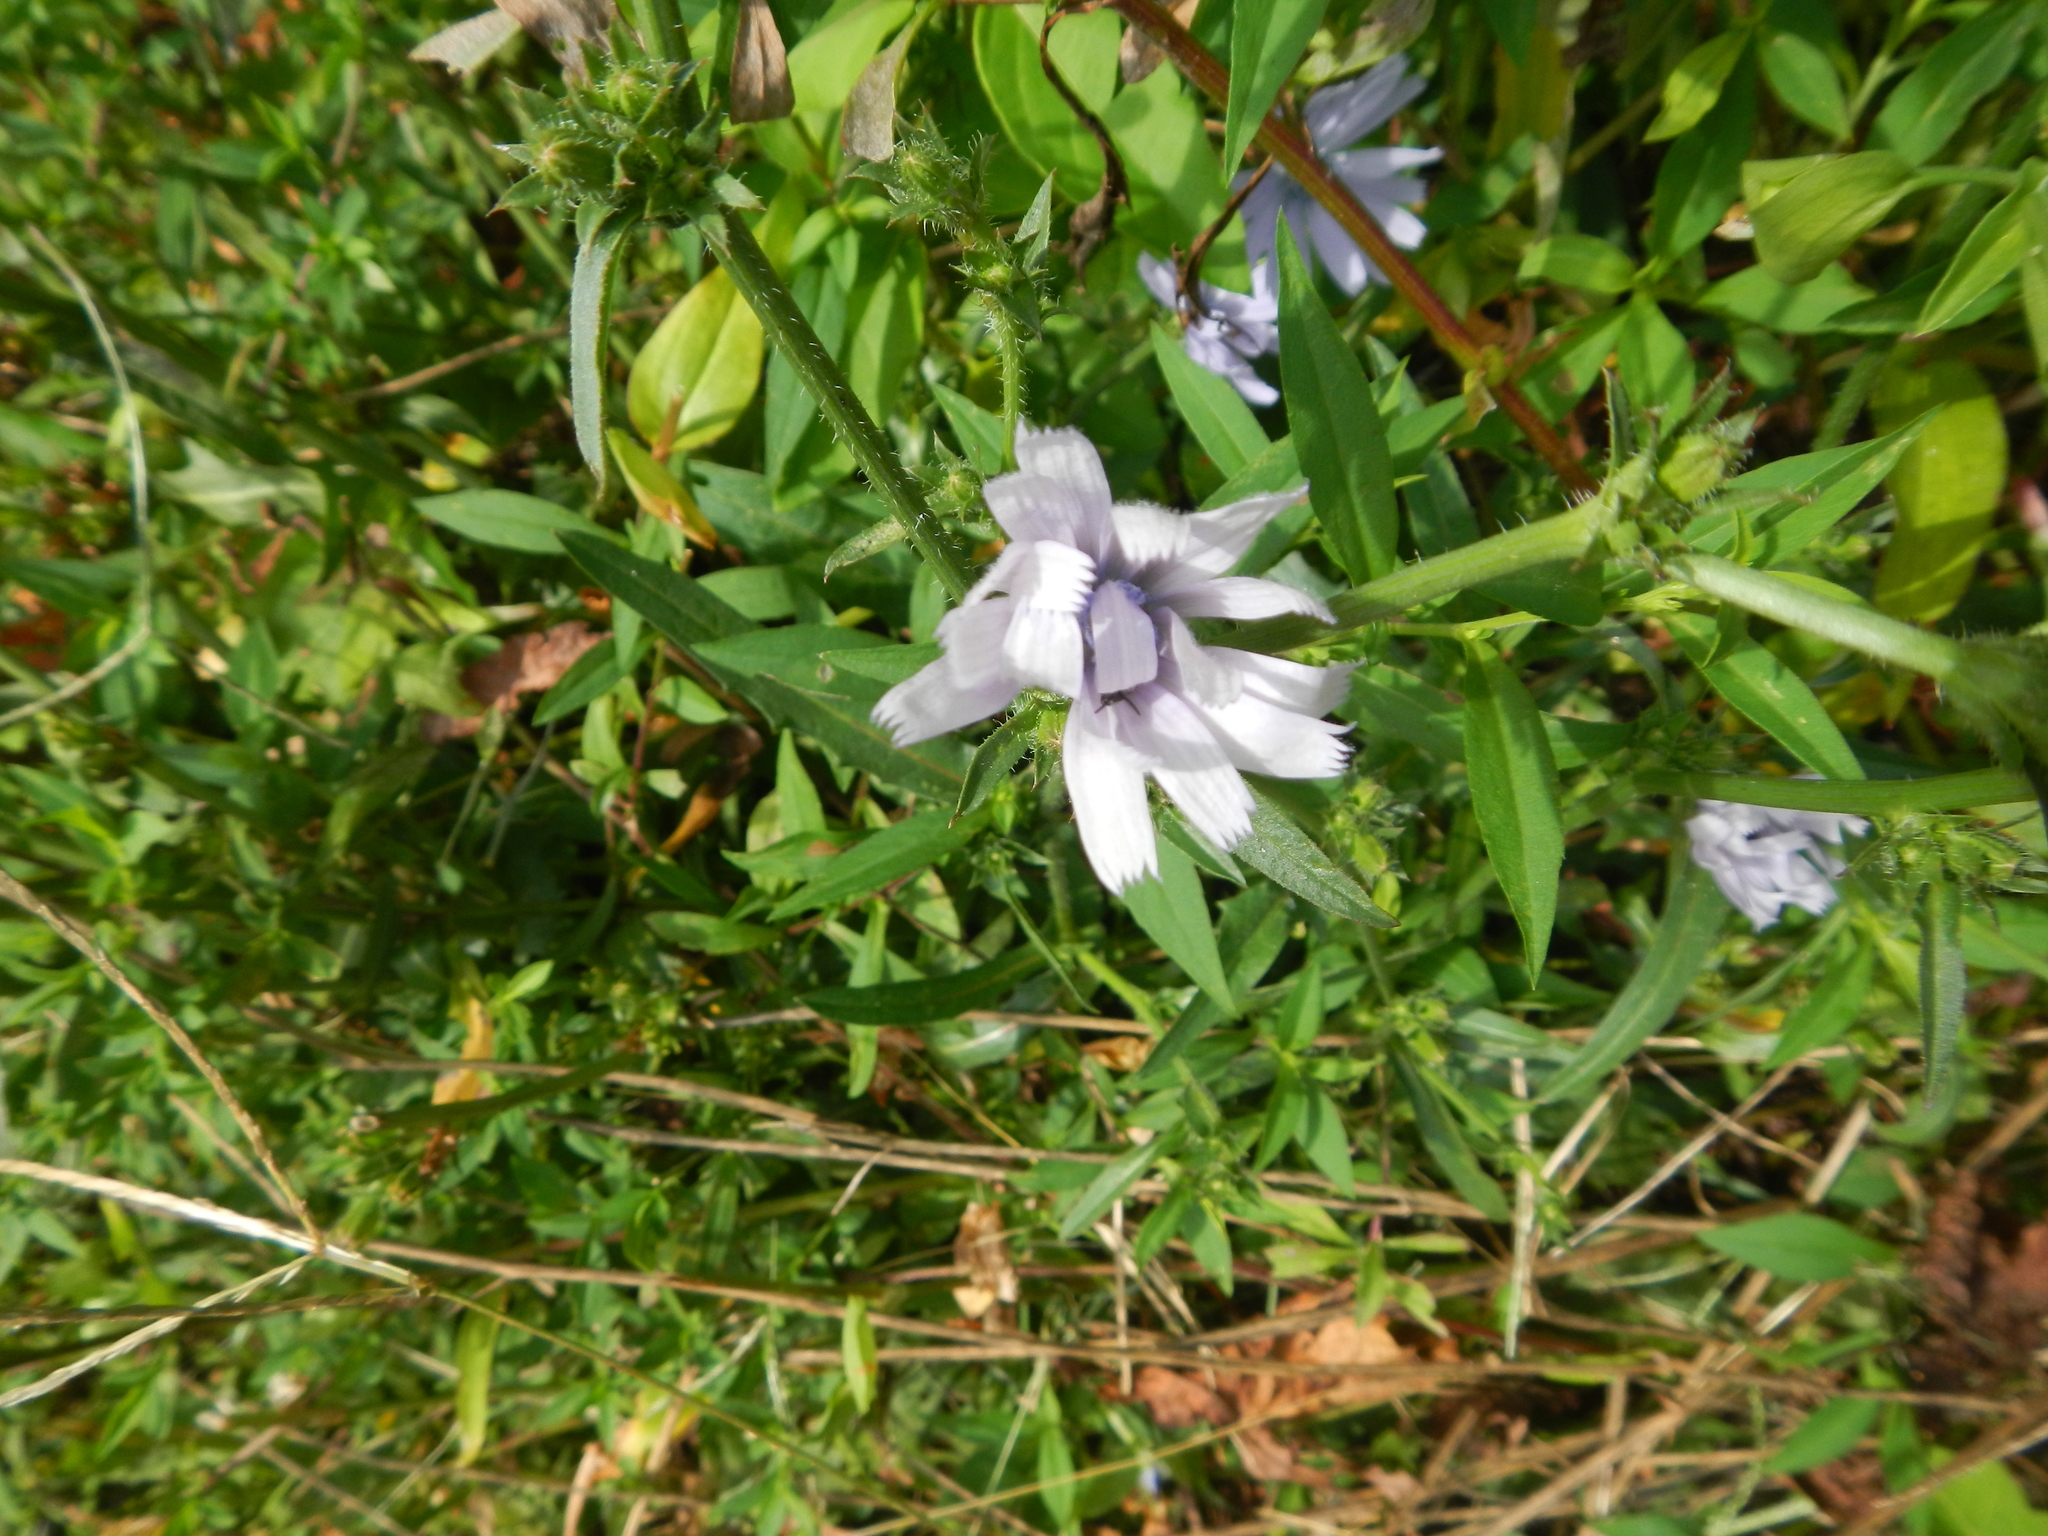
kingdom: Plantae
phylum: Tracheophyta
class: Magnoliopsida
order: Asterales
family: Asteraceae
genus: Cichorium
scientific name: Cichorium intybus
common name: Chicory
